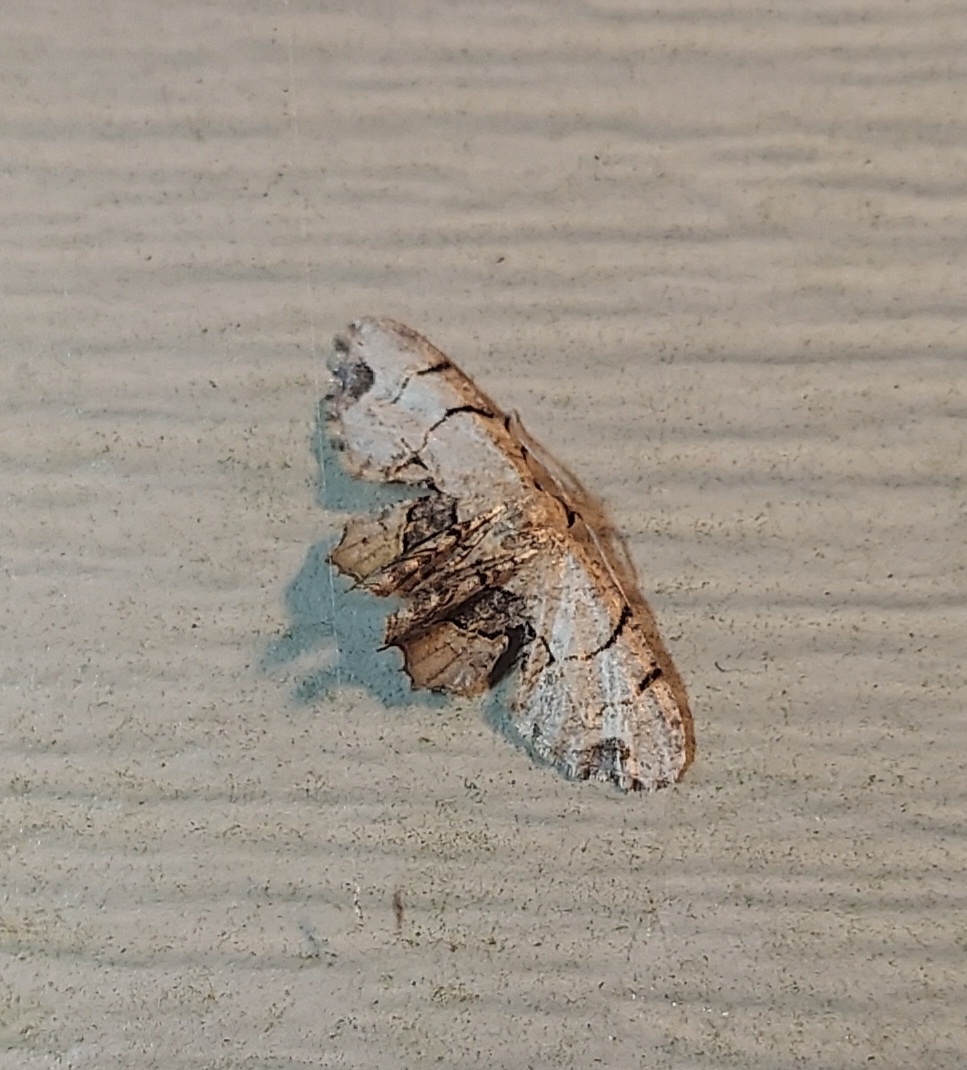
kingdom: Animalia
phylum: Arthropoda
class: Insecta
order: Lepidoptera
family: Uraniidae
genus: Epiplema
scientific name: Epiplema Callizzia amorata
